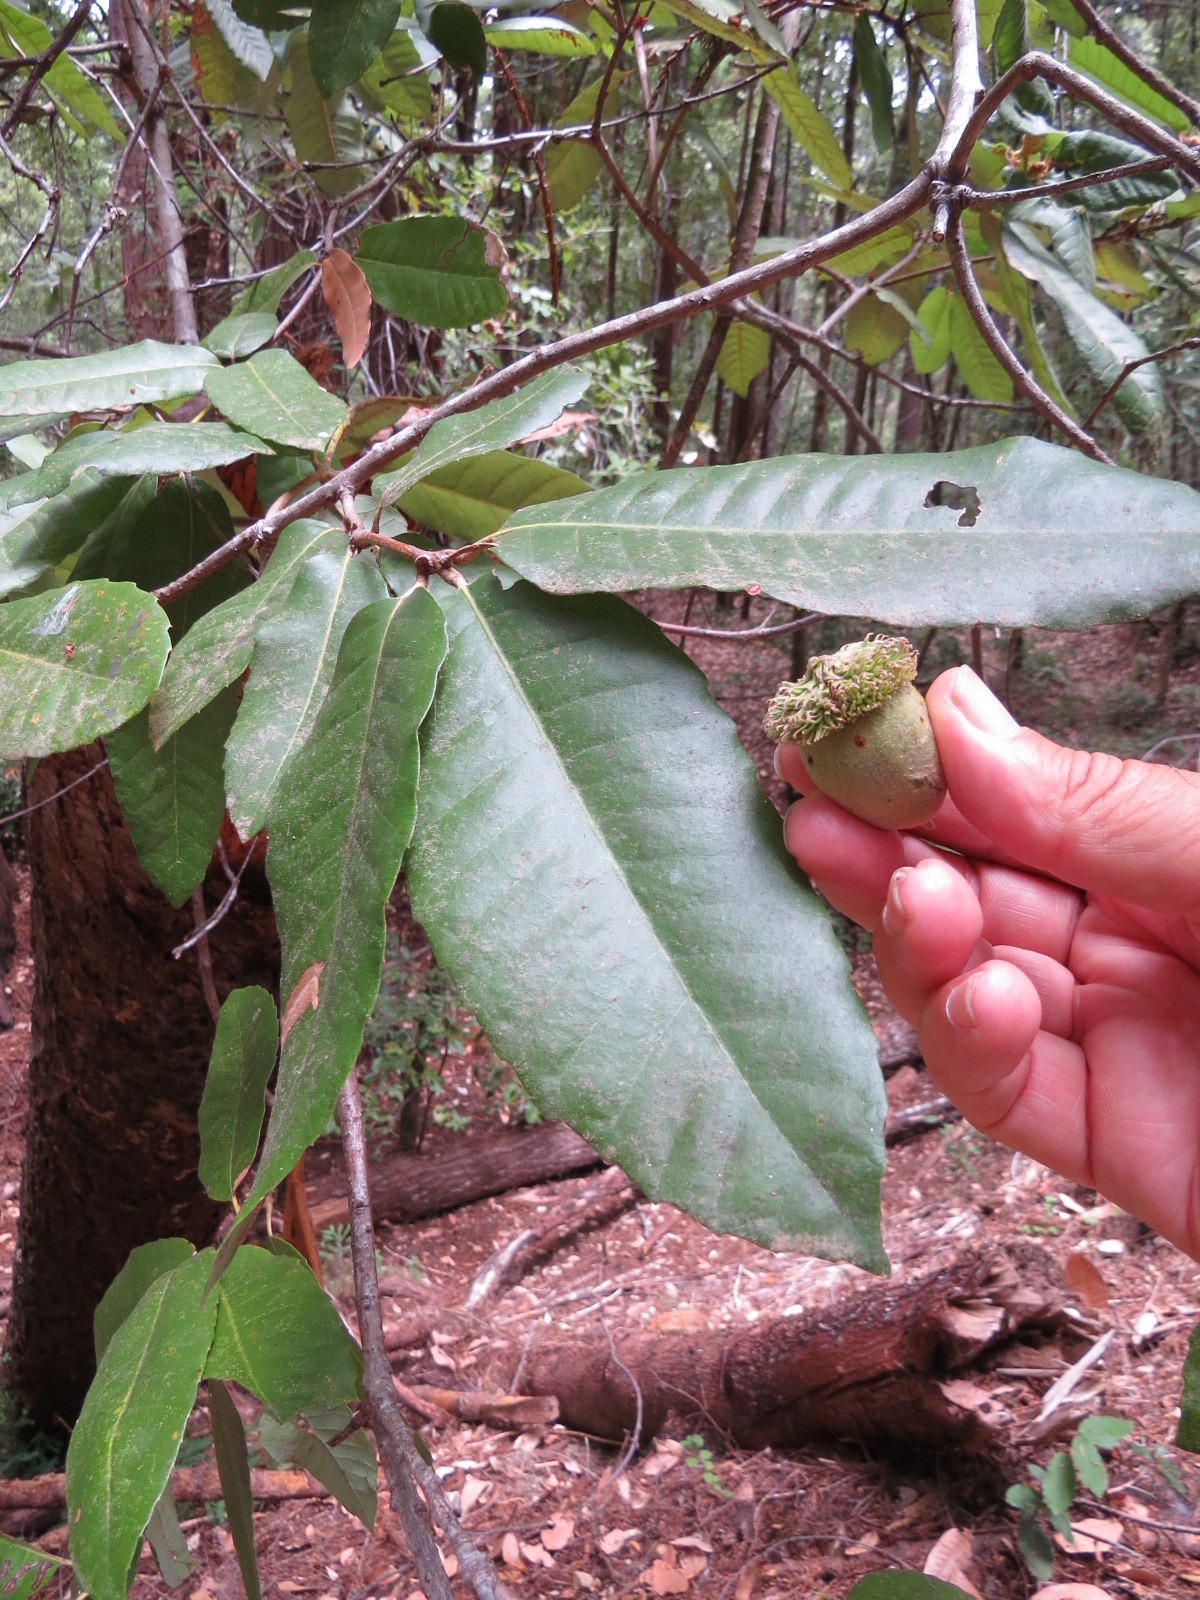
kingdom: Plantae
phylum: Tracheophyta
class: Magnoliopsida
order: Fagales
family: Fagaceae
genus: Notholithocarpus
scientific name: Notholithocarpus densiflorus
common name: Tan bark oak
